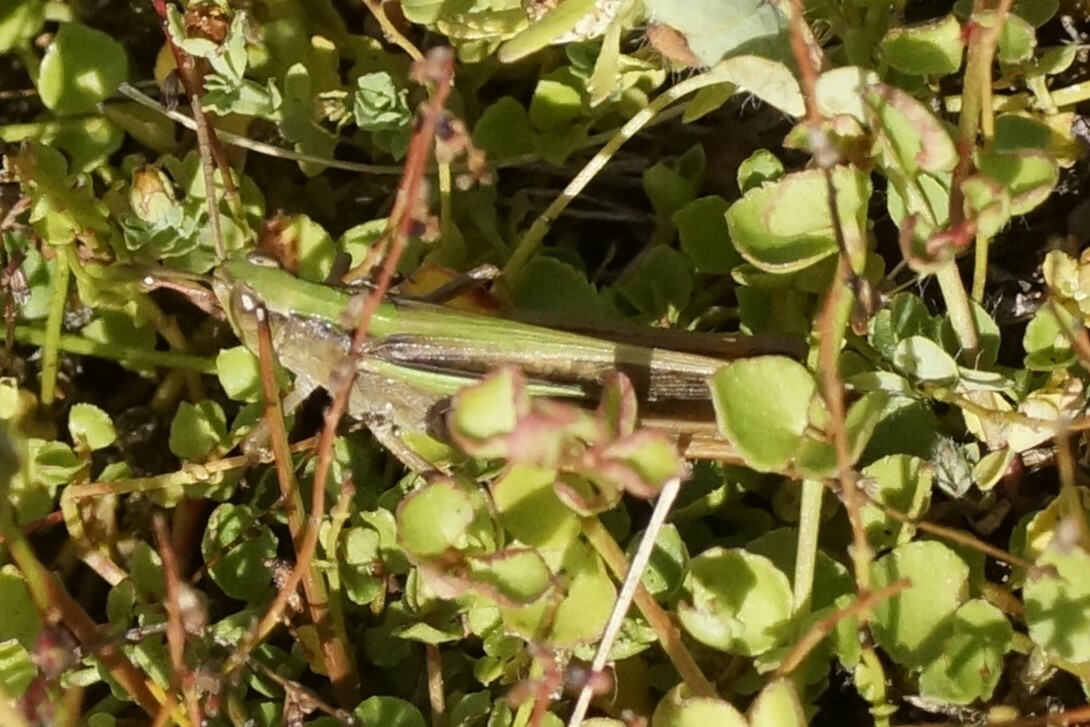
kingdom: Animalia
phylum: Arthropoda
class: Insecta
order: Orthoptera
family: Acrididae
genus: Schizobothrus
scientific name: Schizobothrus flavovittatus
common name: Disappearing grasshopper
